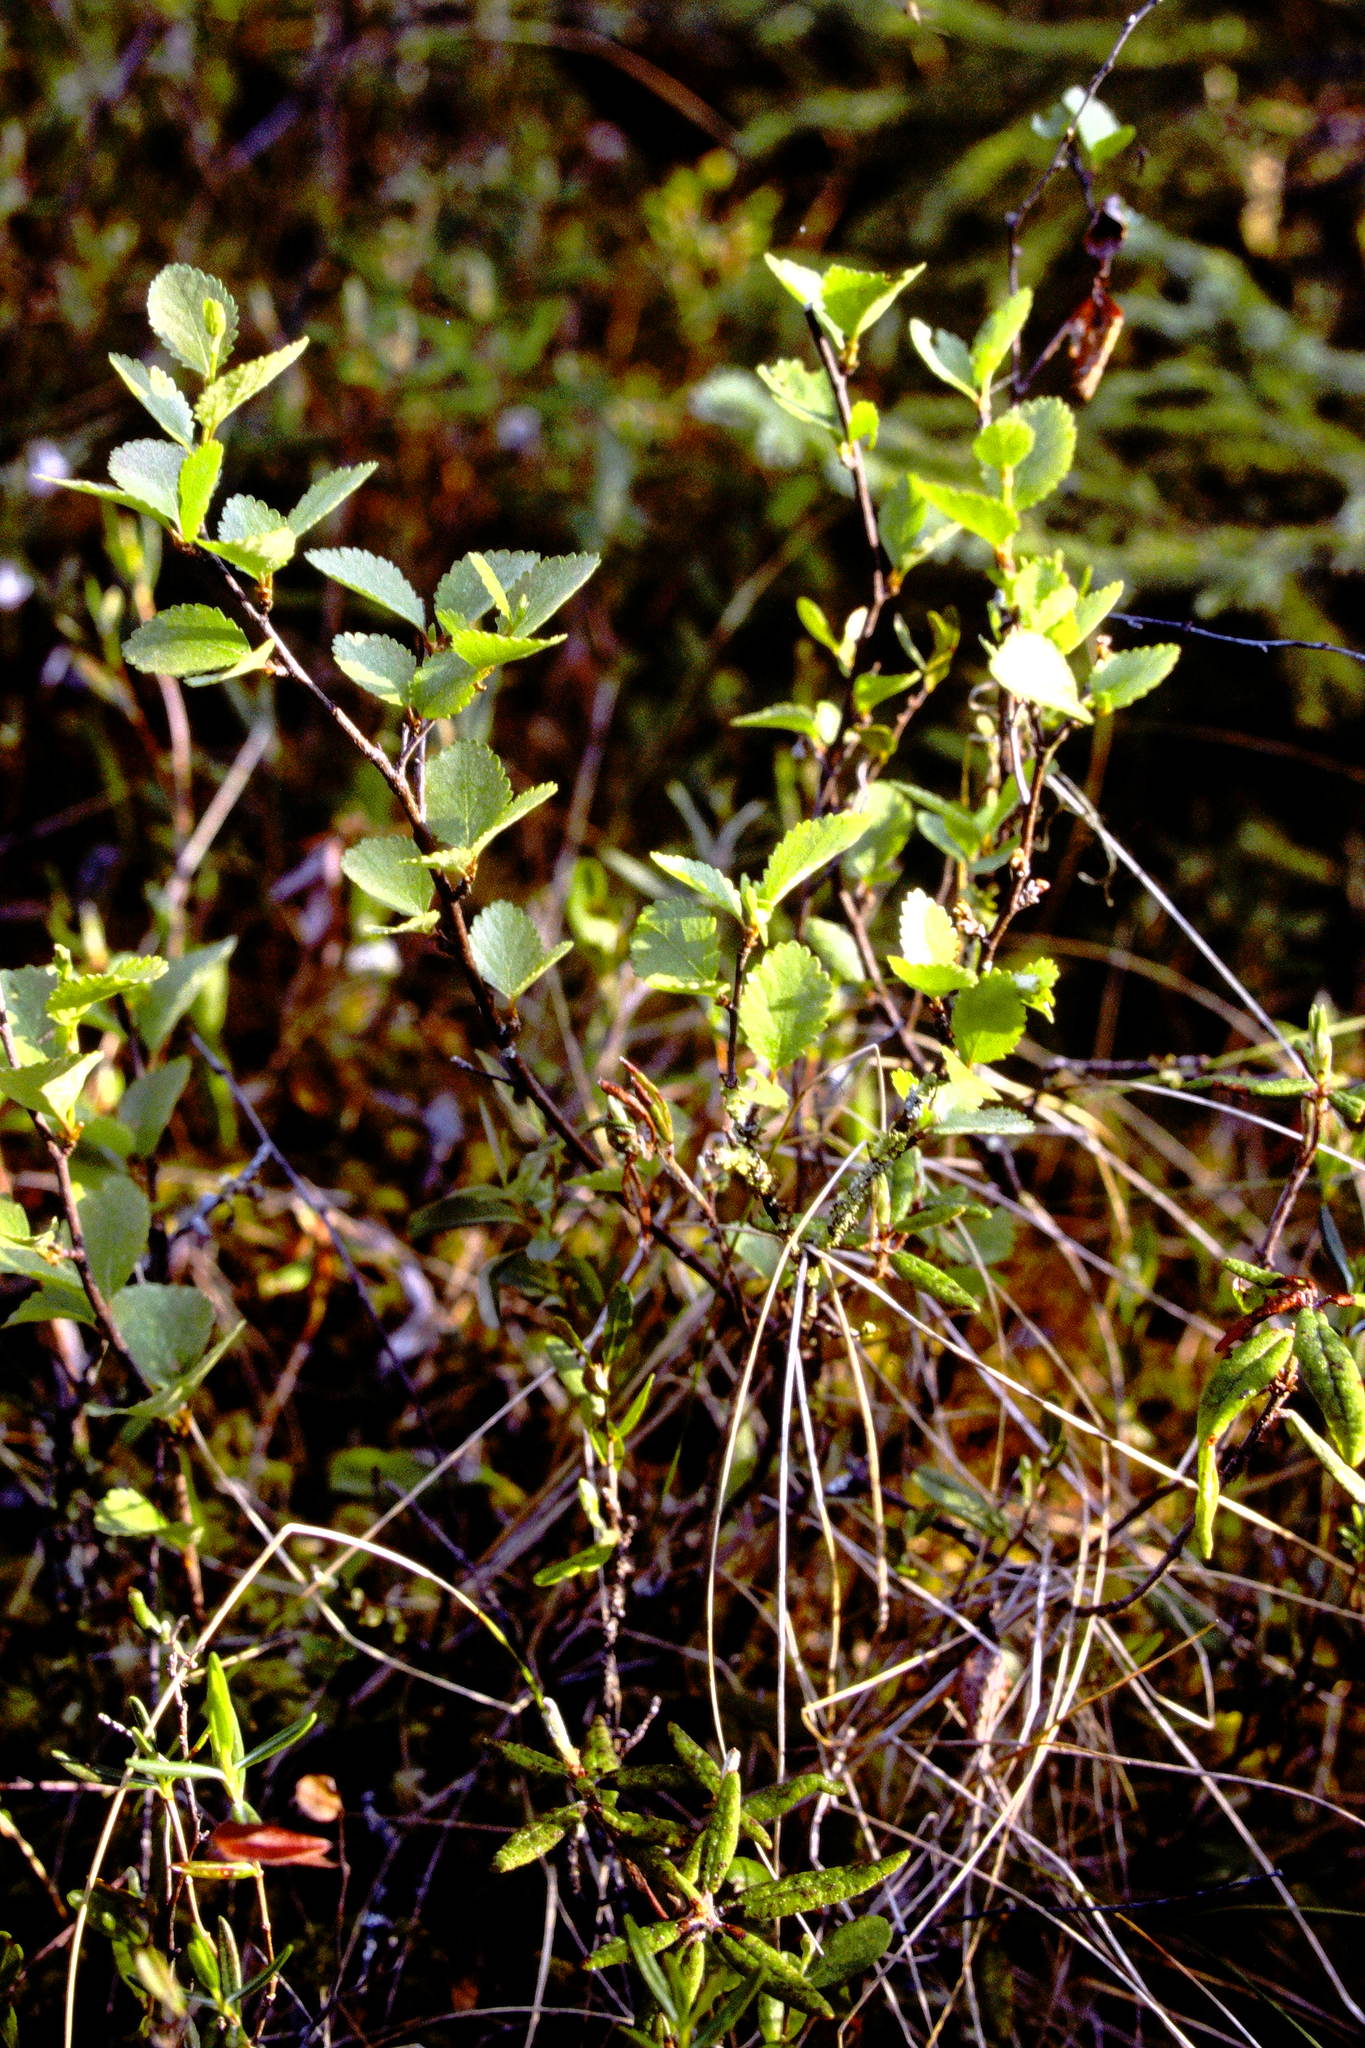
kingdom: Plantae
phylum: Tracheophyta
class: Magnoliopsida
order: Fagales
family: Betulaceae
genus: Betula
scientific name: Betula pumila
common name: Bog birch
